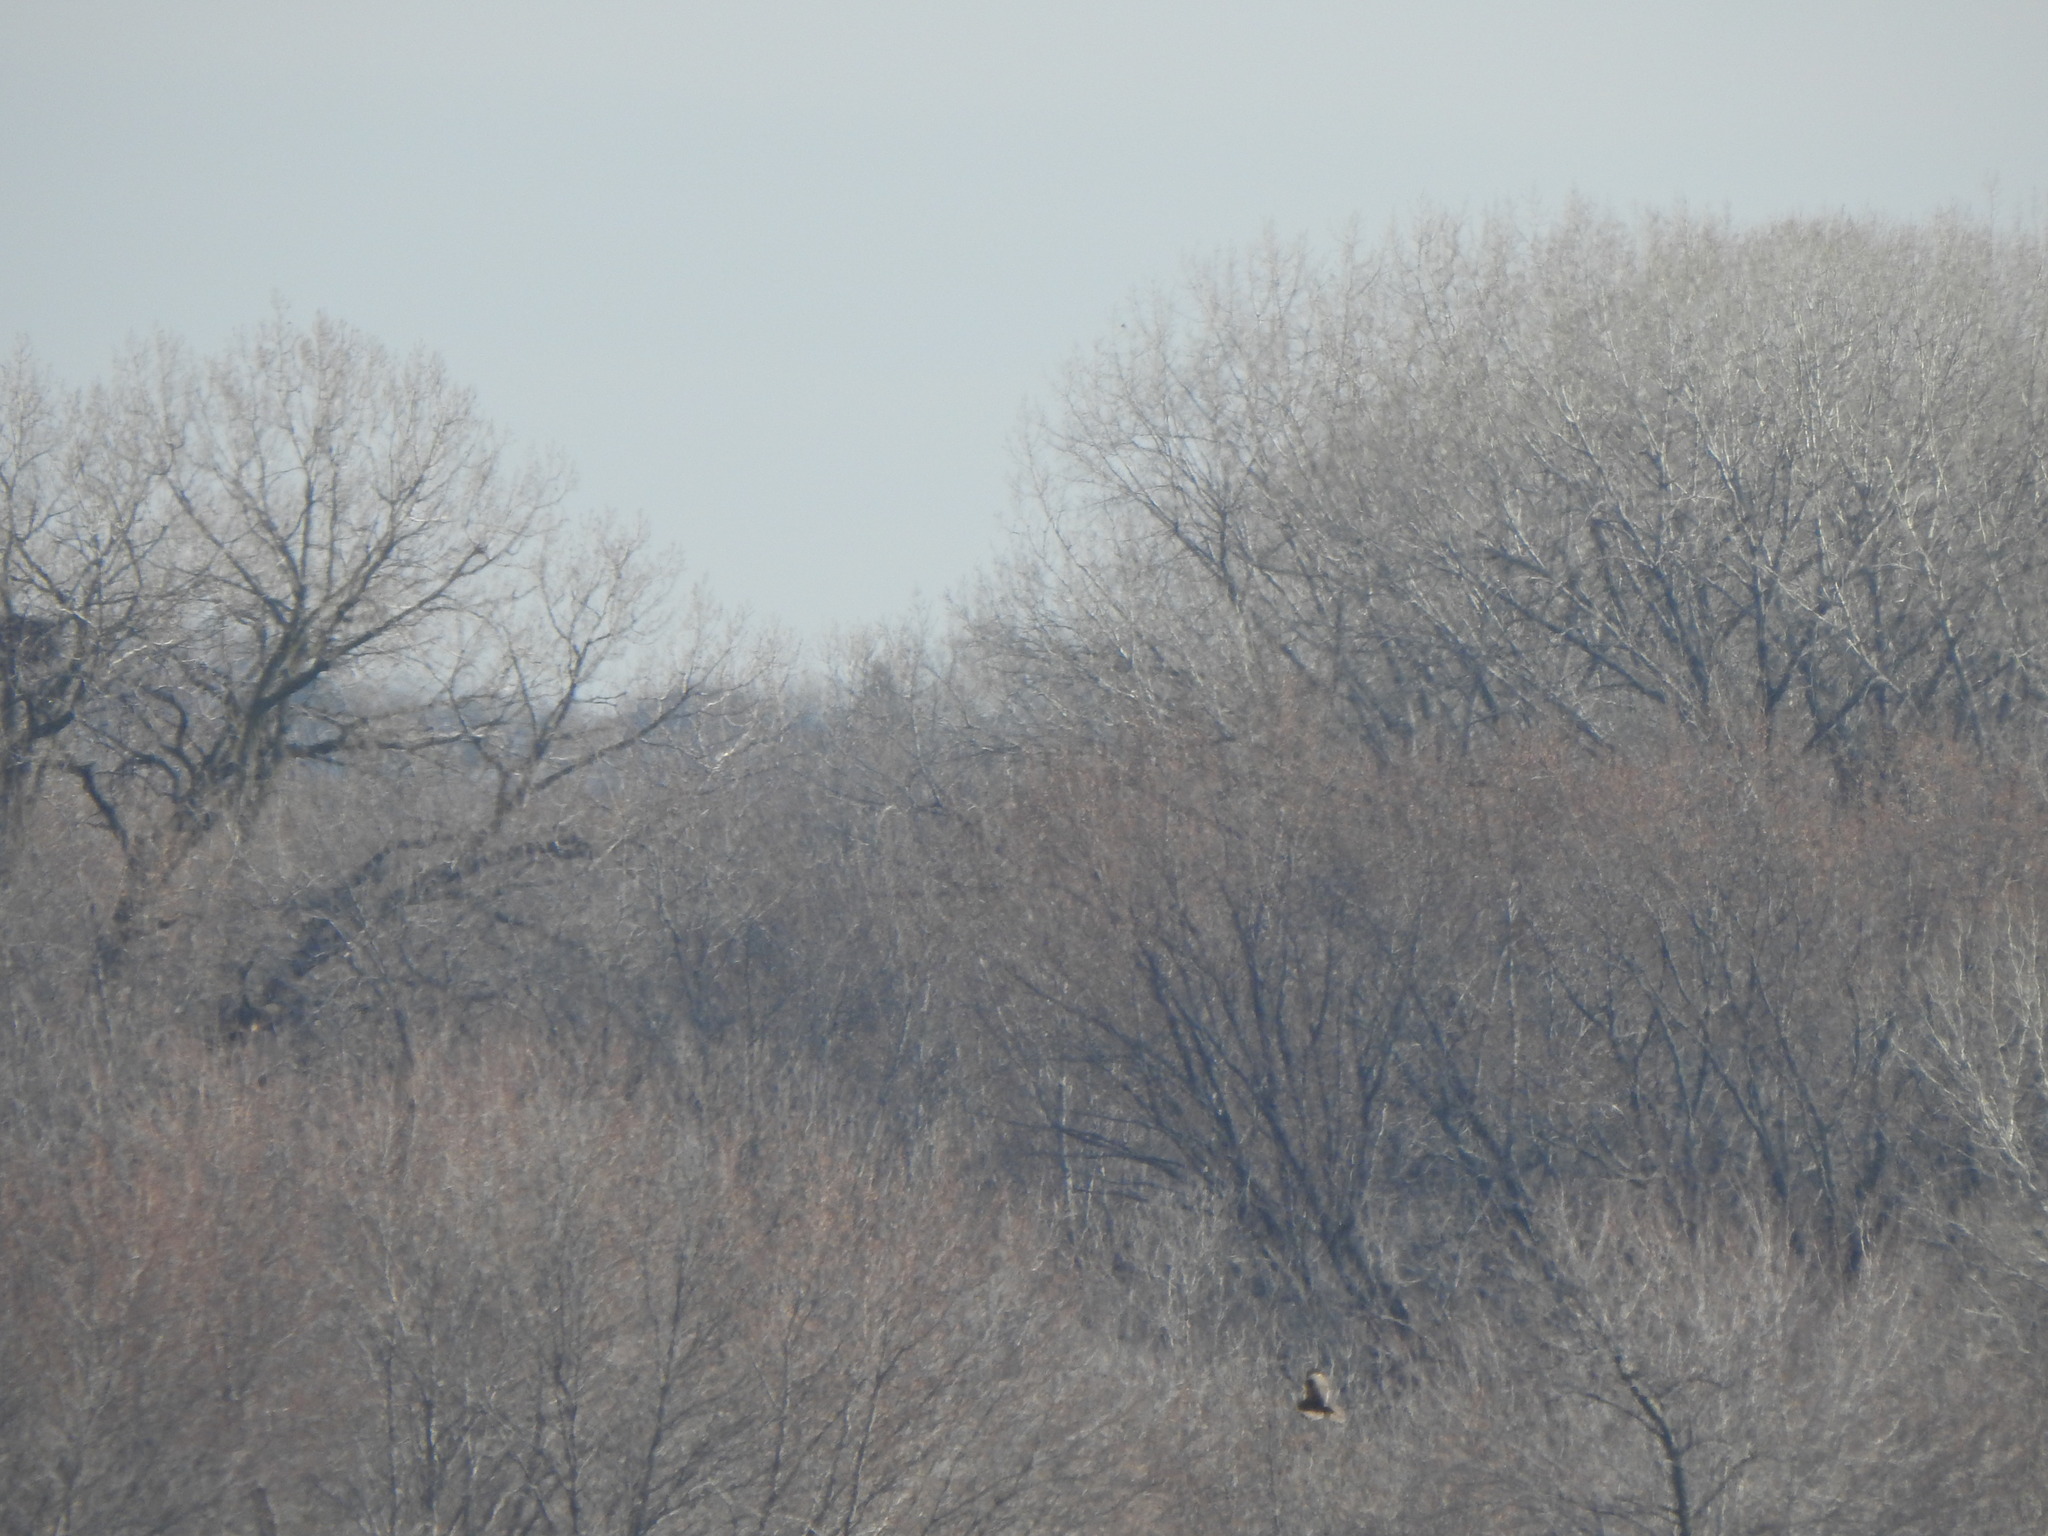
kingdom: Animalia
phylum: Chordata
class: Aves
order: Accipitriformes
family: Accipitridae
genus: Buteo
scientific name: Buteo lagopus
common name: Rough-legged buzzard
